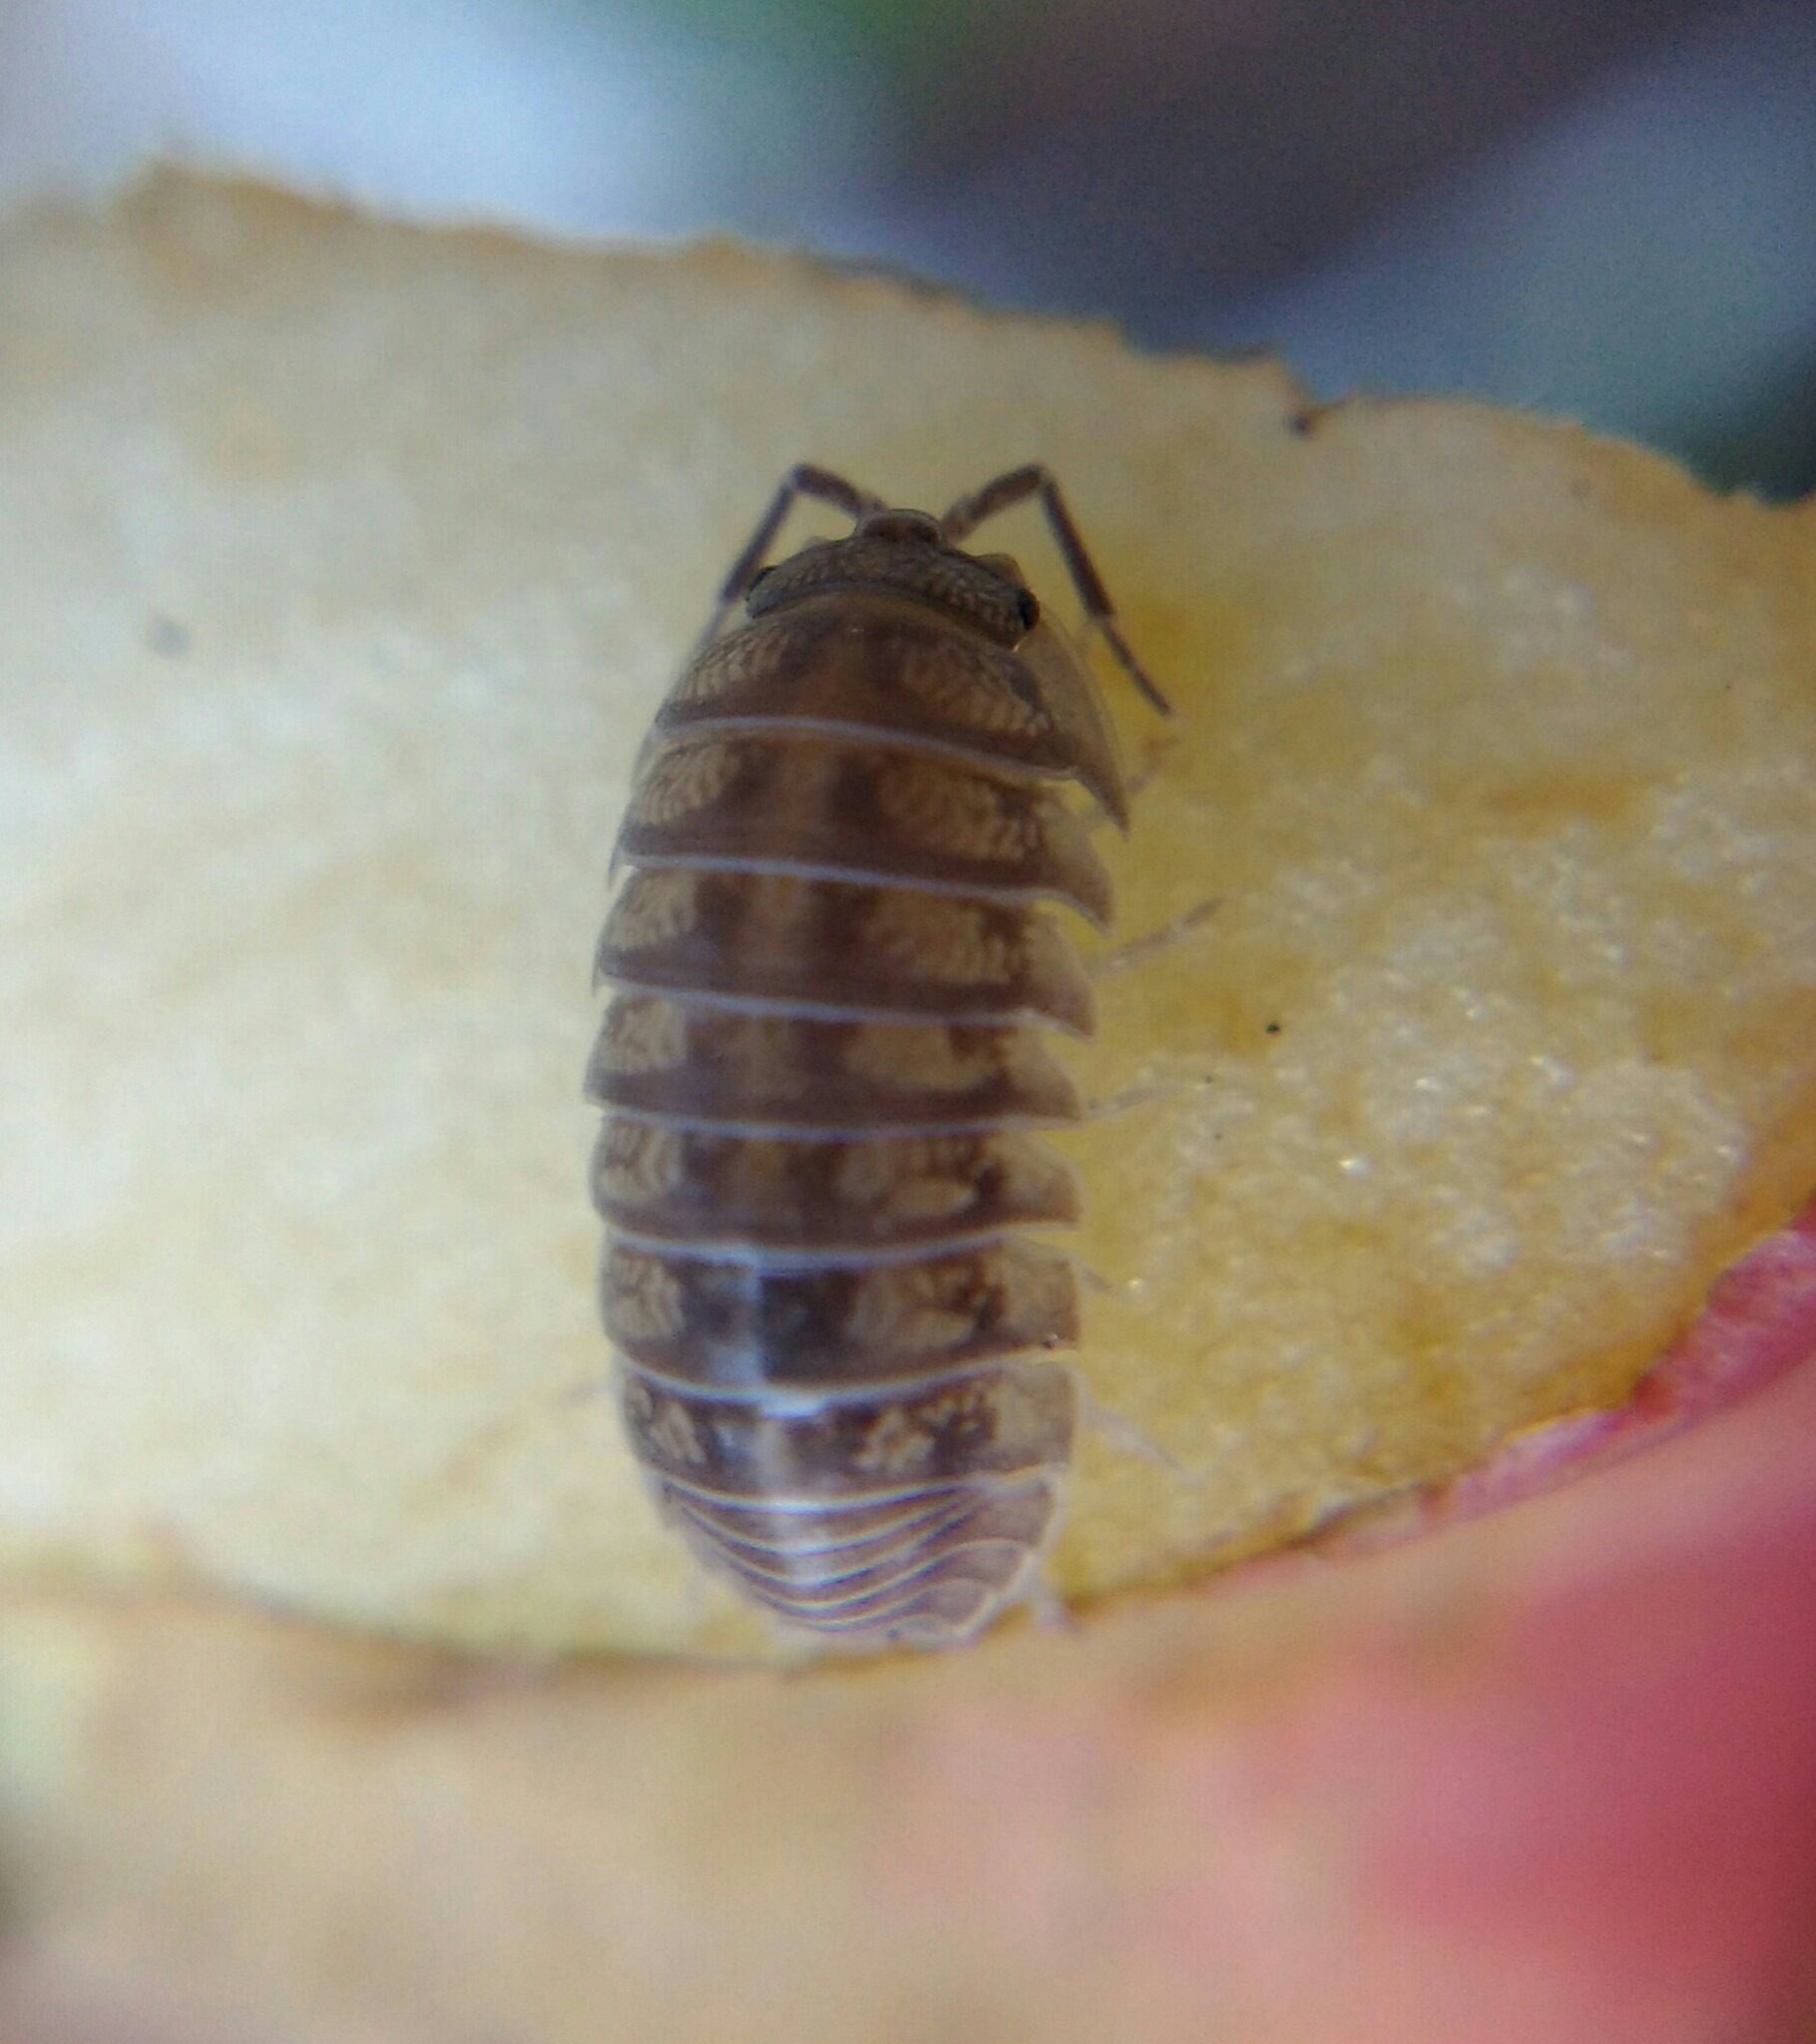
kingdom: Animalia
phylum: Arthropoda
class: Malacostraca
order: Isopoda
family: Armadillidiidae
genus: Armadillidium
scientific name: Armadillidium nasatum
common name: Isopod
